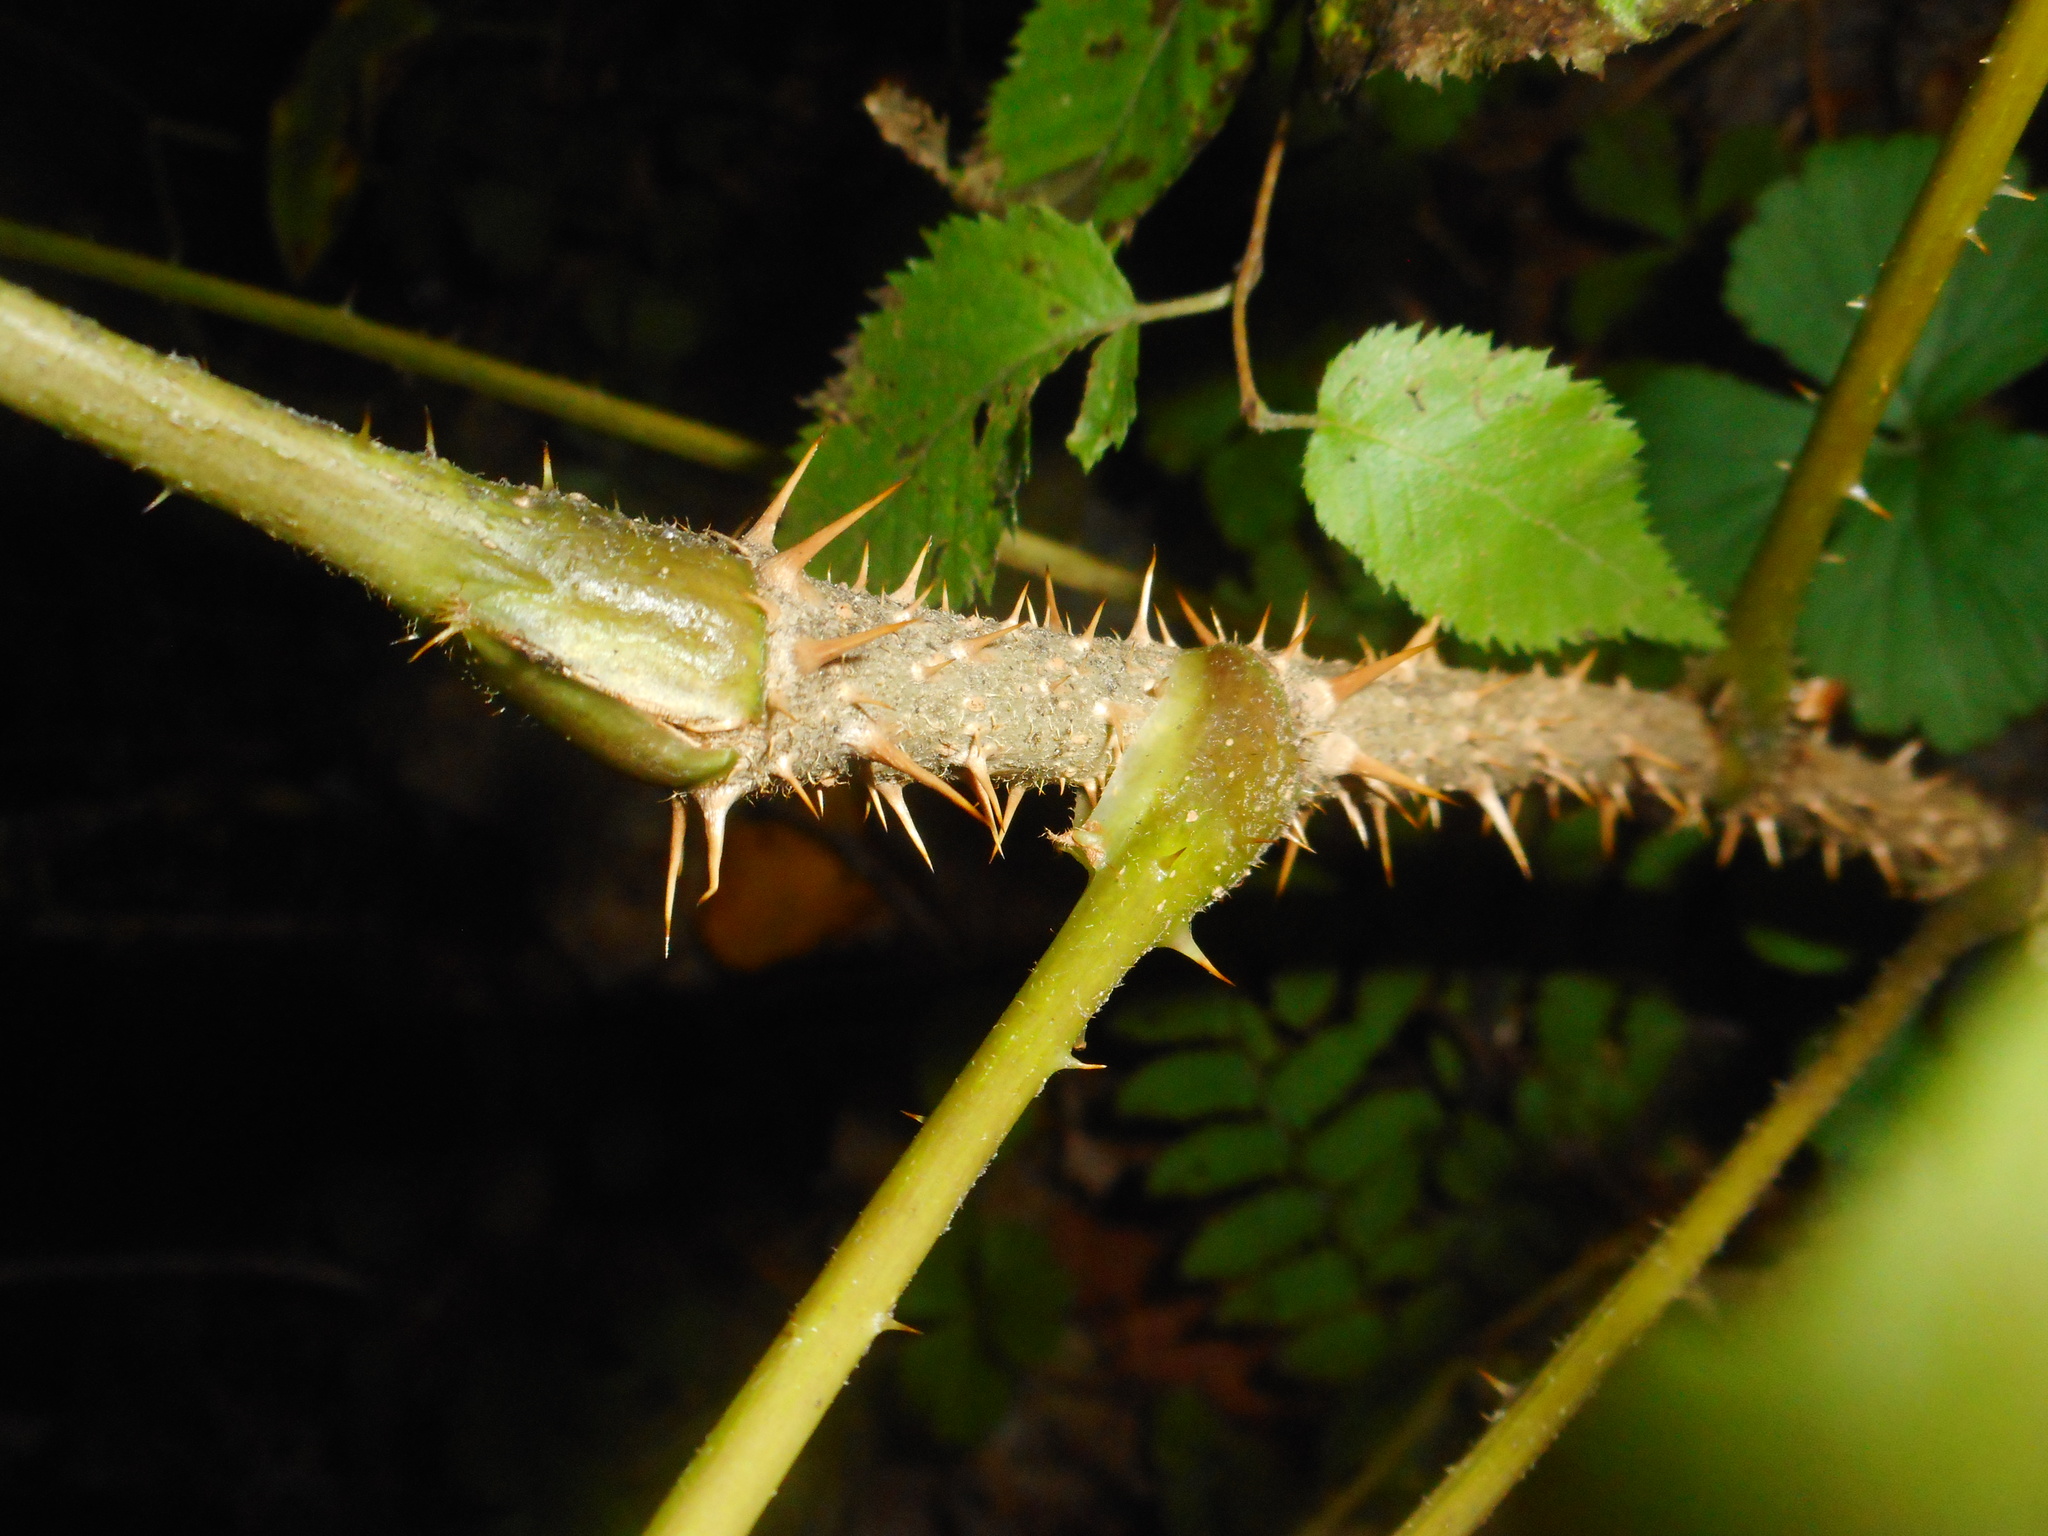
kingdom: Plantae
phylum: Tracheophyta
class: Magnoliopsida
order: Apiales
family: Araliaceae
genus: Aralia
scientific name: Aralia elata
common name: Japanese angelica-tree
